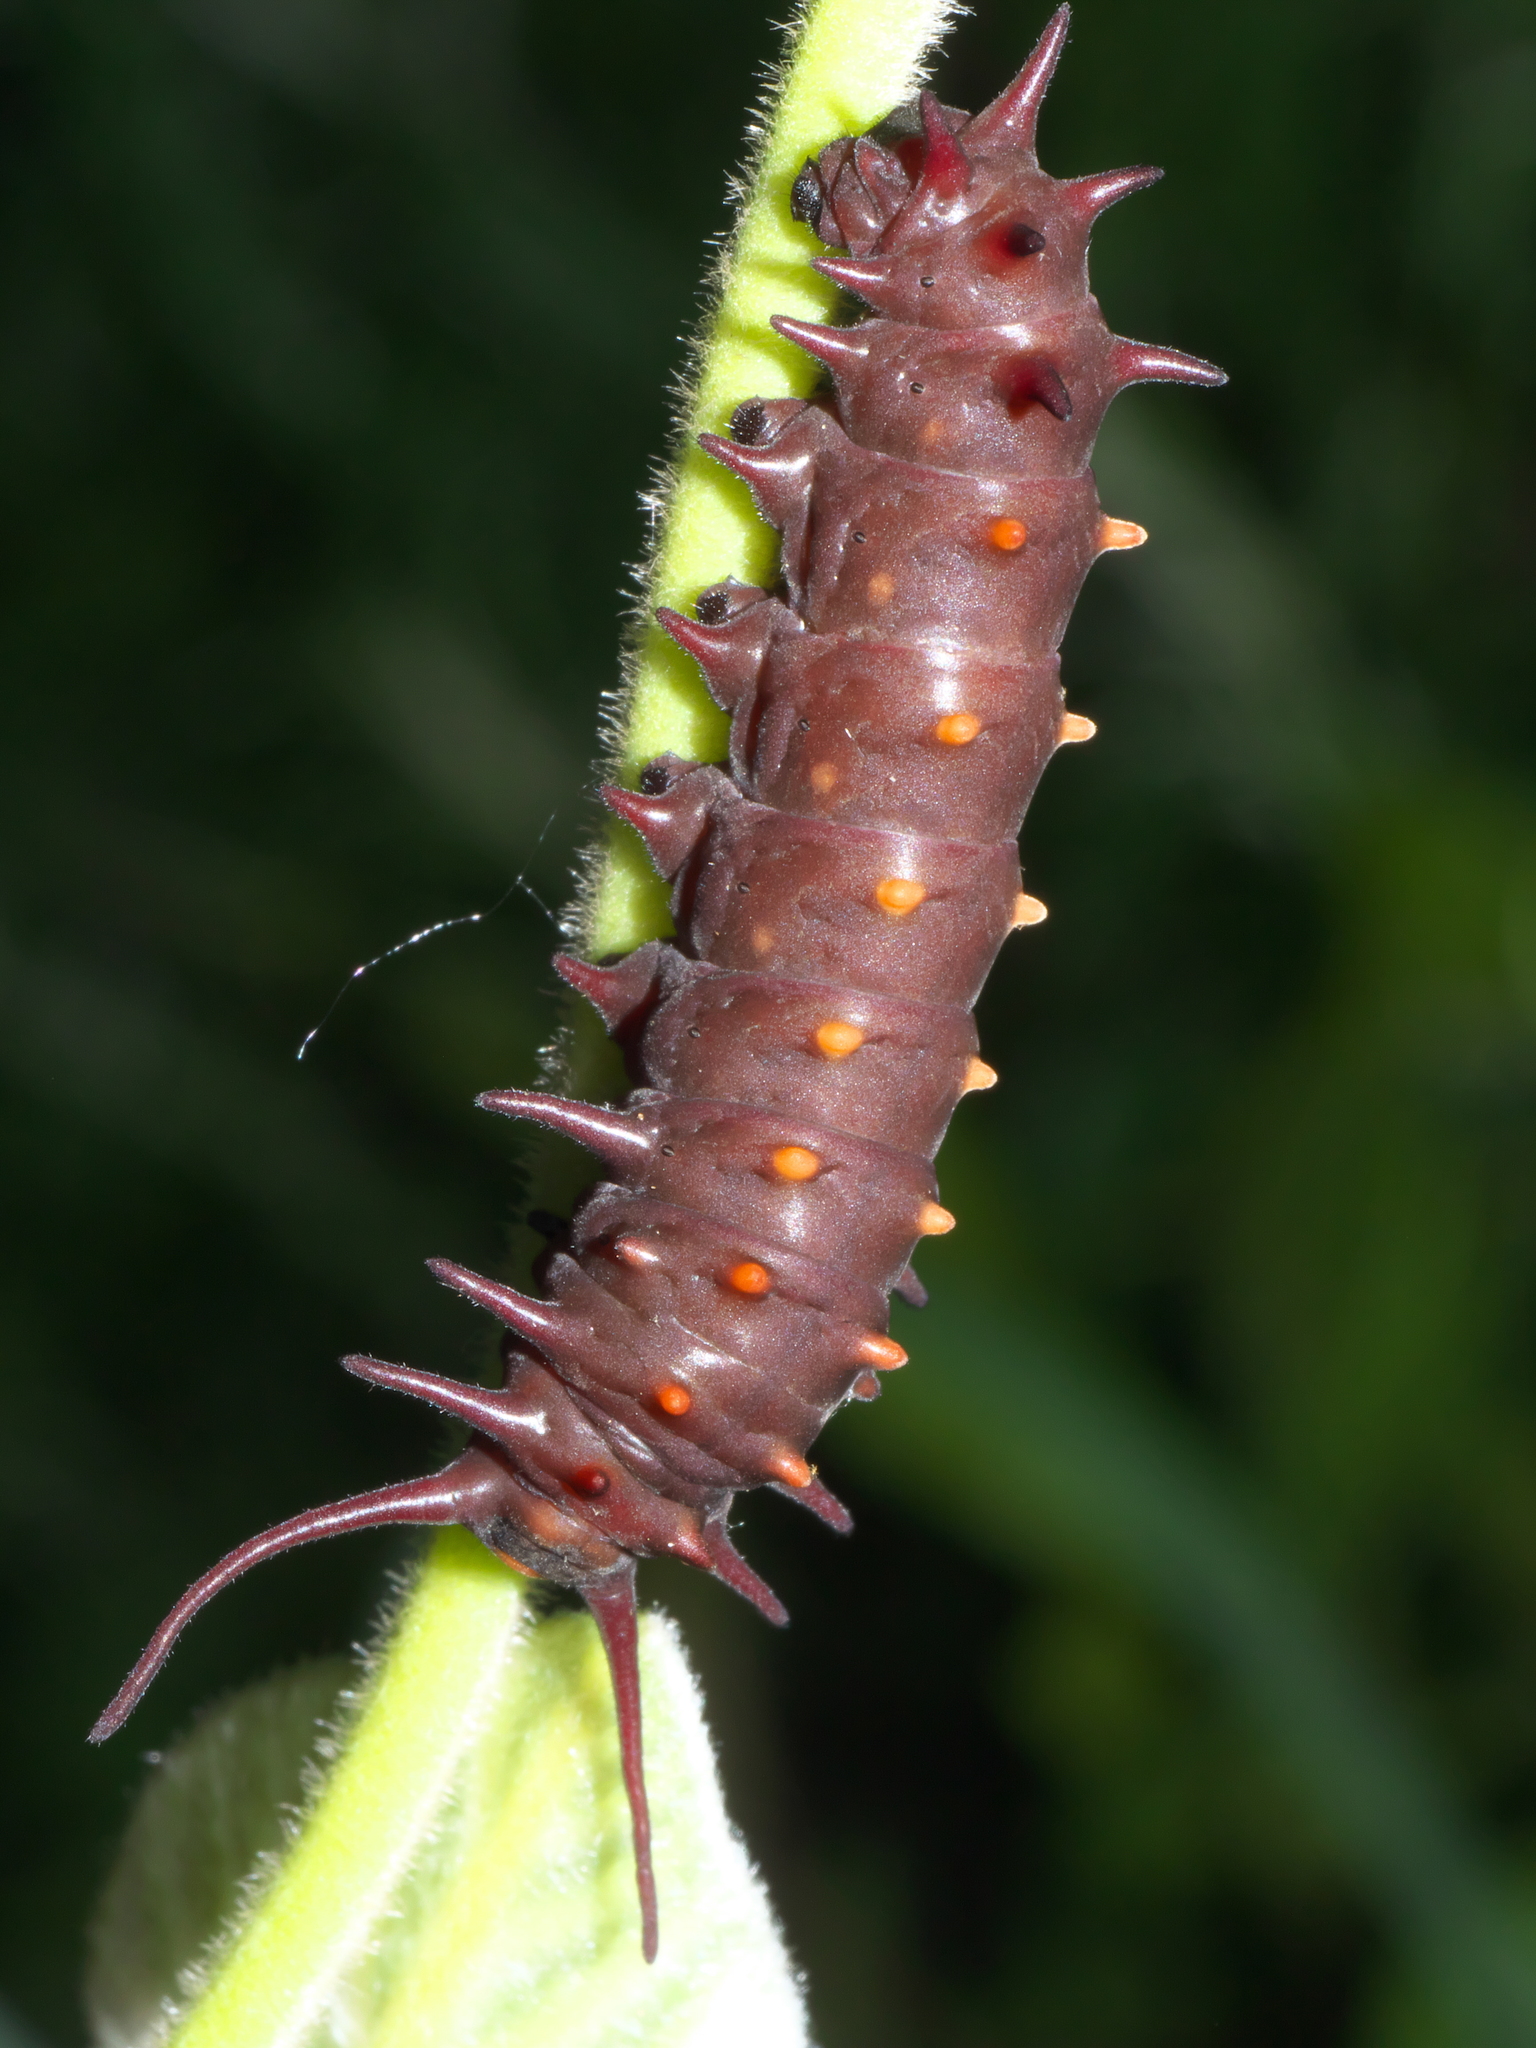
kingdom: Animalia
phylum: Arthropoda
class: Insecta
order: Lepidoptera
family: Papilionidae
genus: Battus
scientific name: Battus philenor
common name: Pipevine swallowtail
